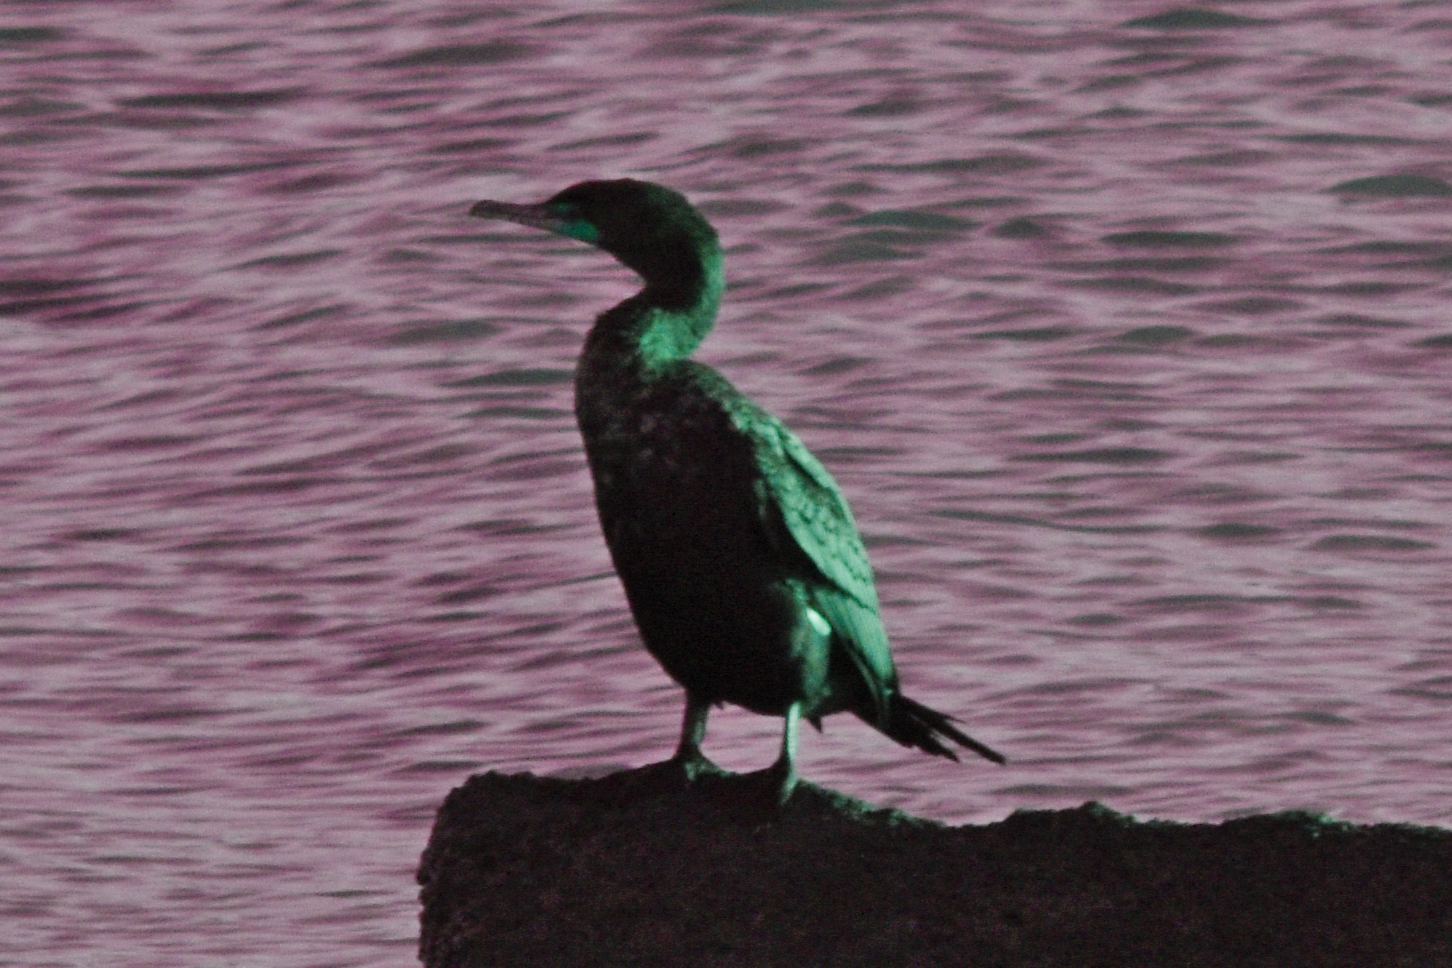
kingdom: Animalia
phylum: Chordata
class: Aves
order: Suliformes
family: Phalacrocoracidae
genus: Phalacrocorax
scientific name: Phalacrocorax auritus
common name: Double-crested cormorant
